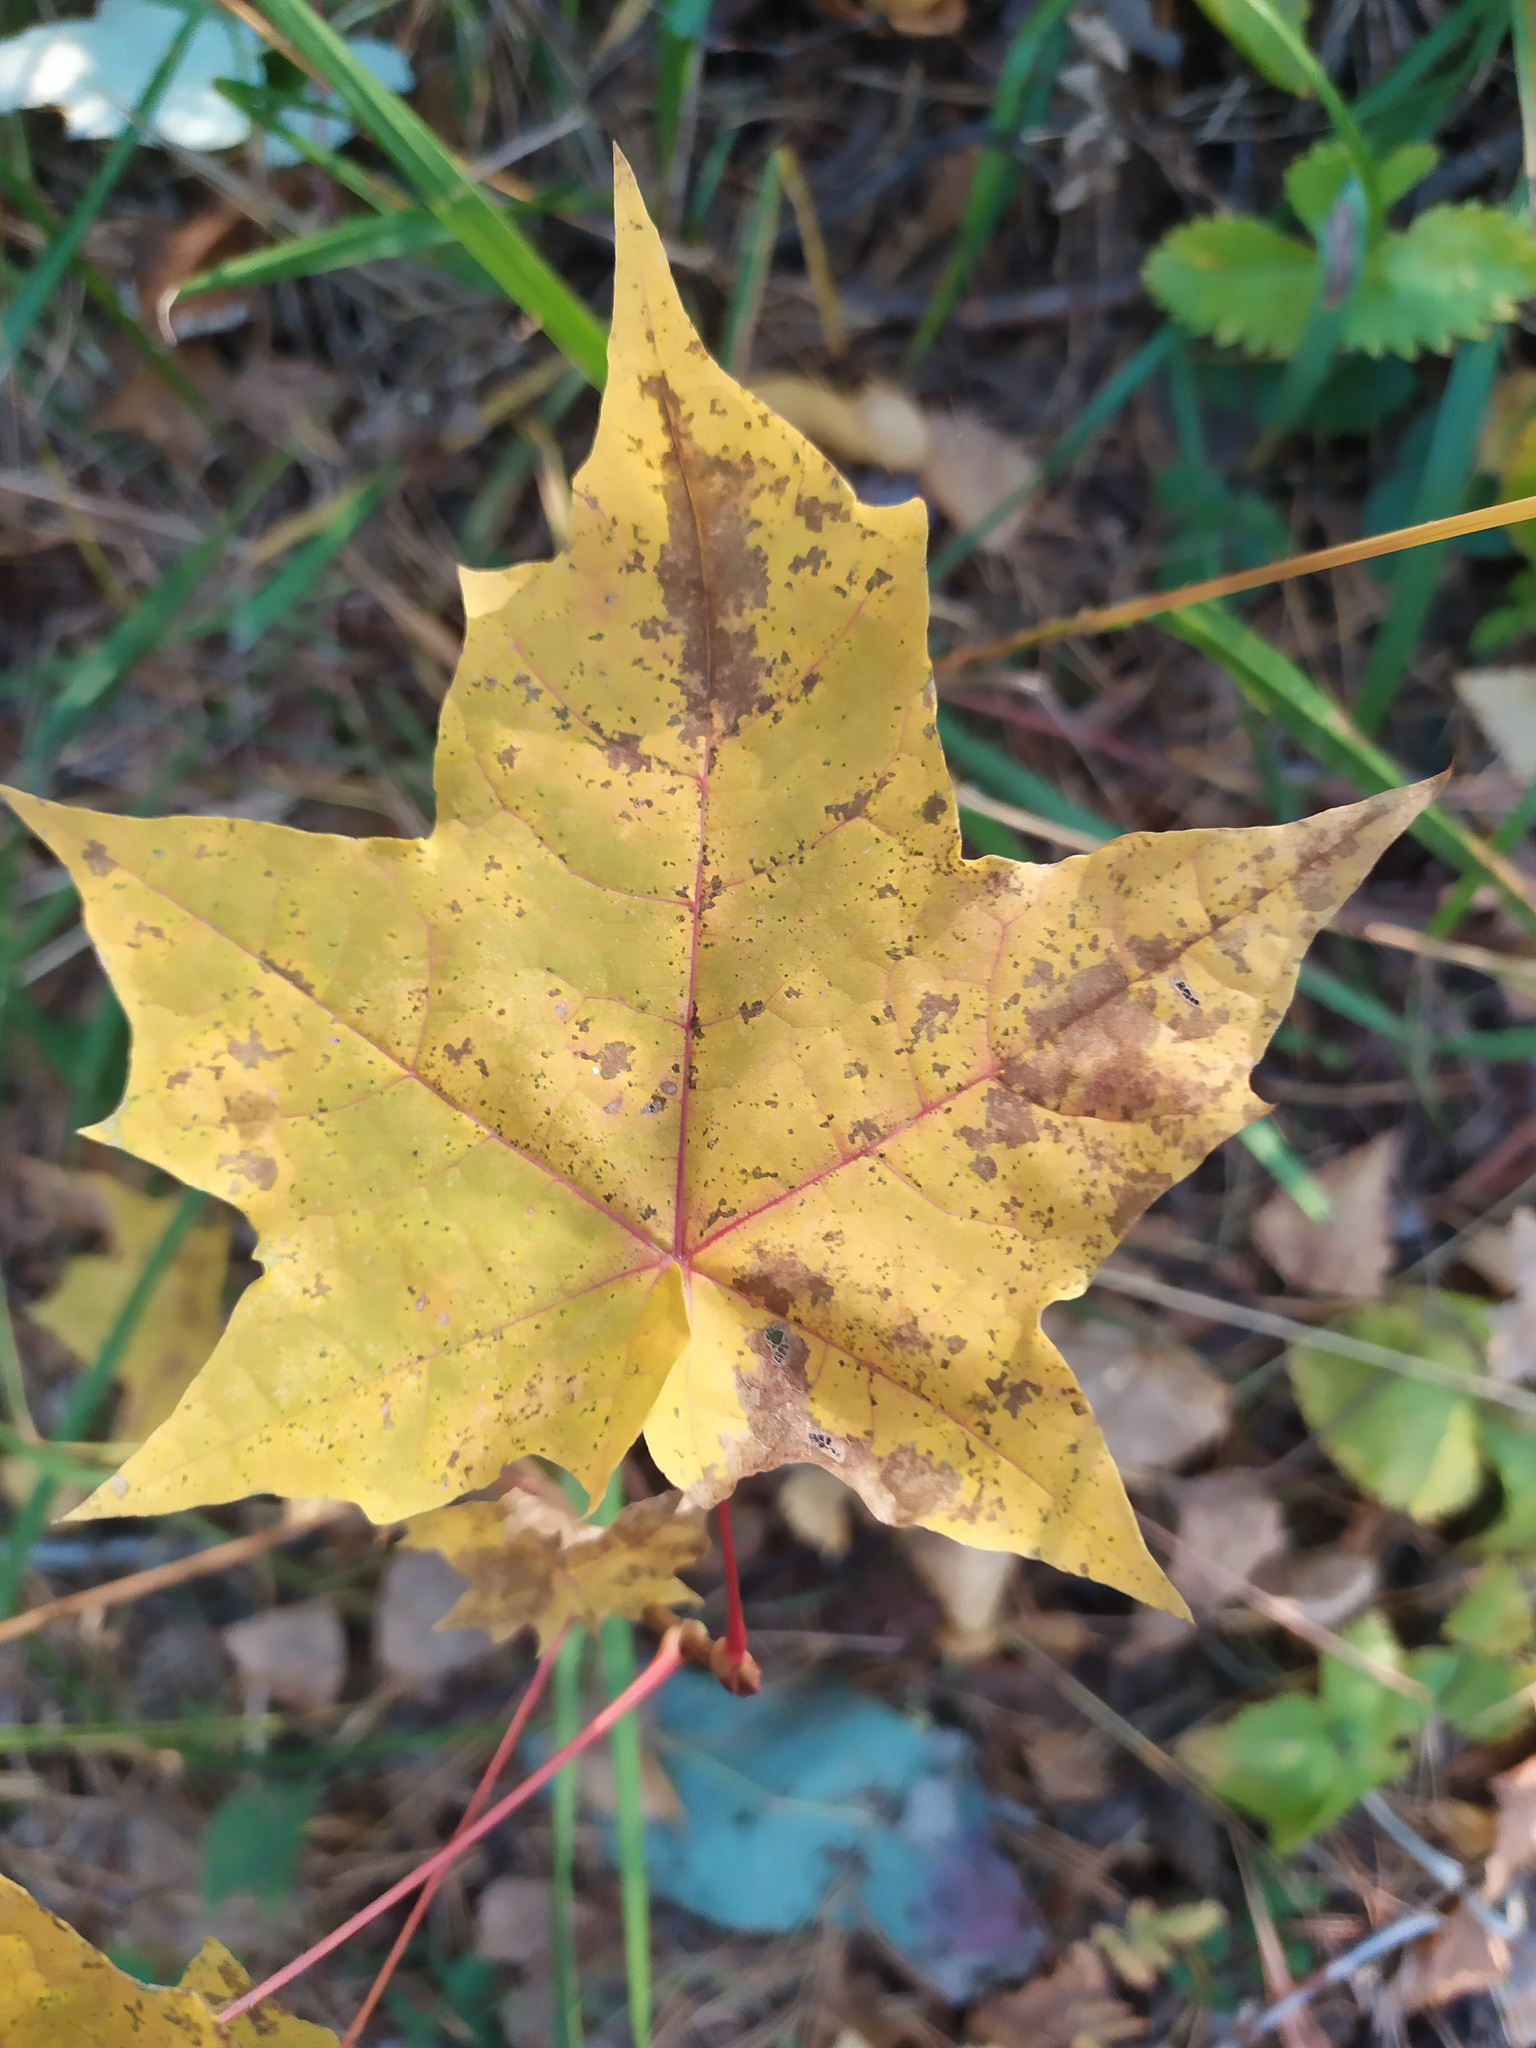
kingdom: Plantae
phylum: Tracheophyta
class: Magnoliopsida
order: Sapindales
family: Sapindaceae
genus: Acer
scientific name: Acer platanoides
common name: Norway maple
